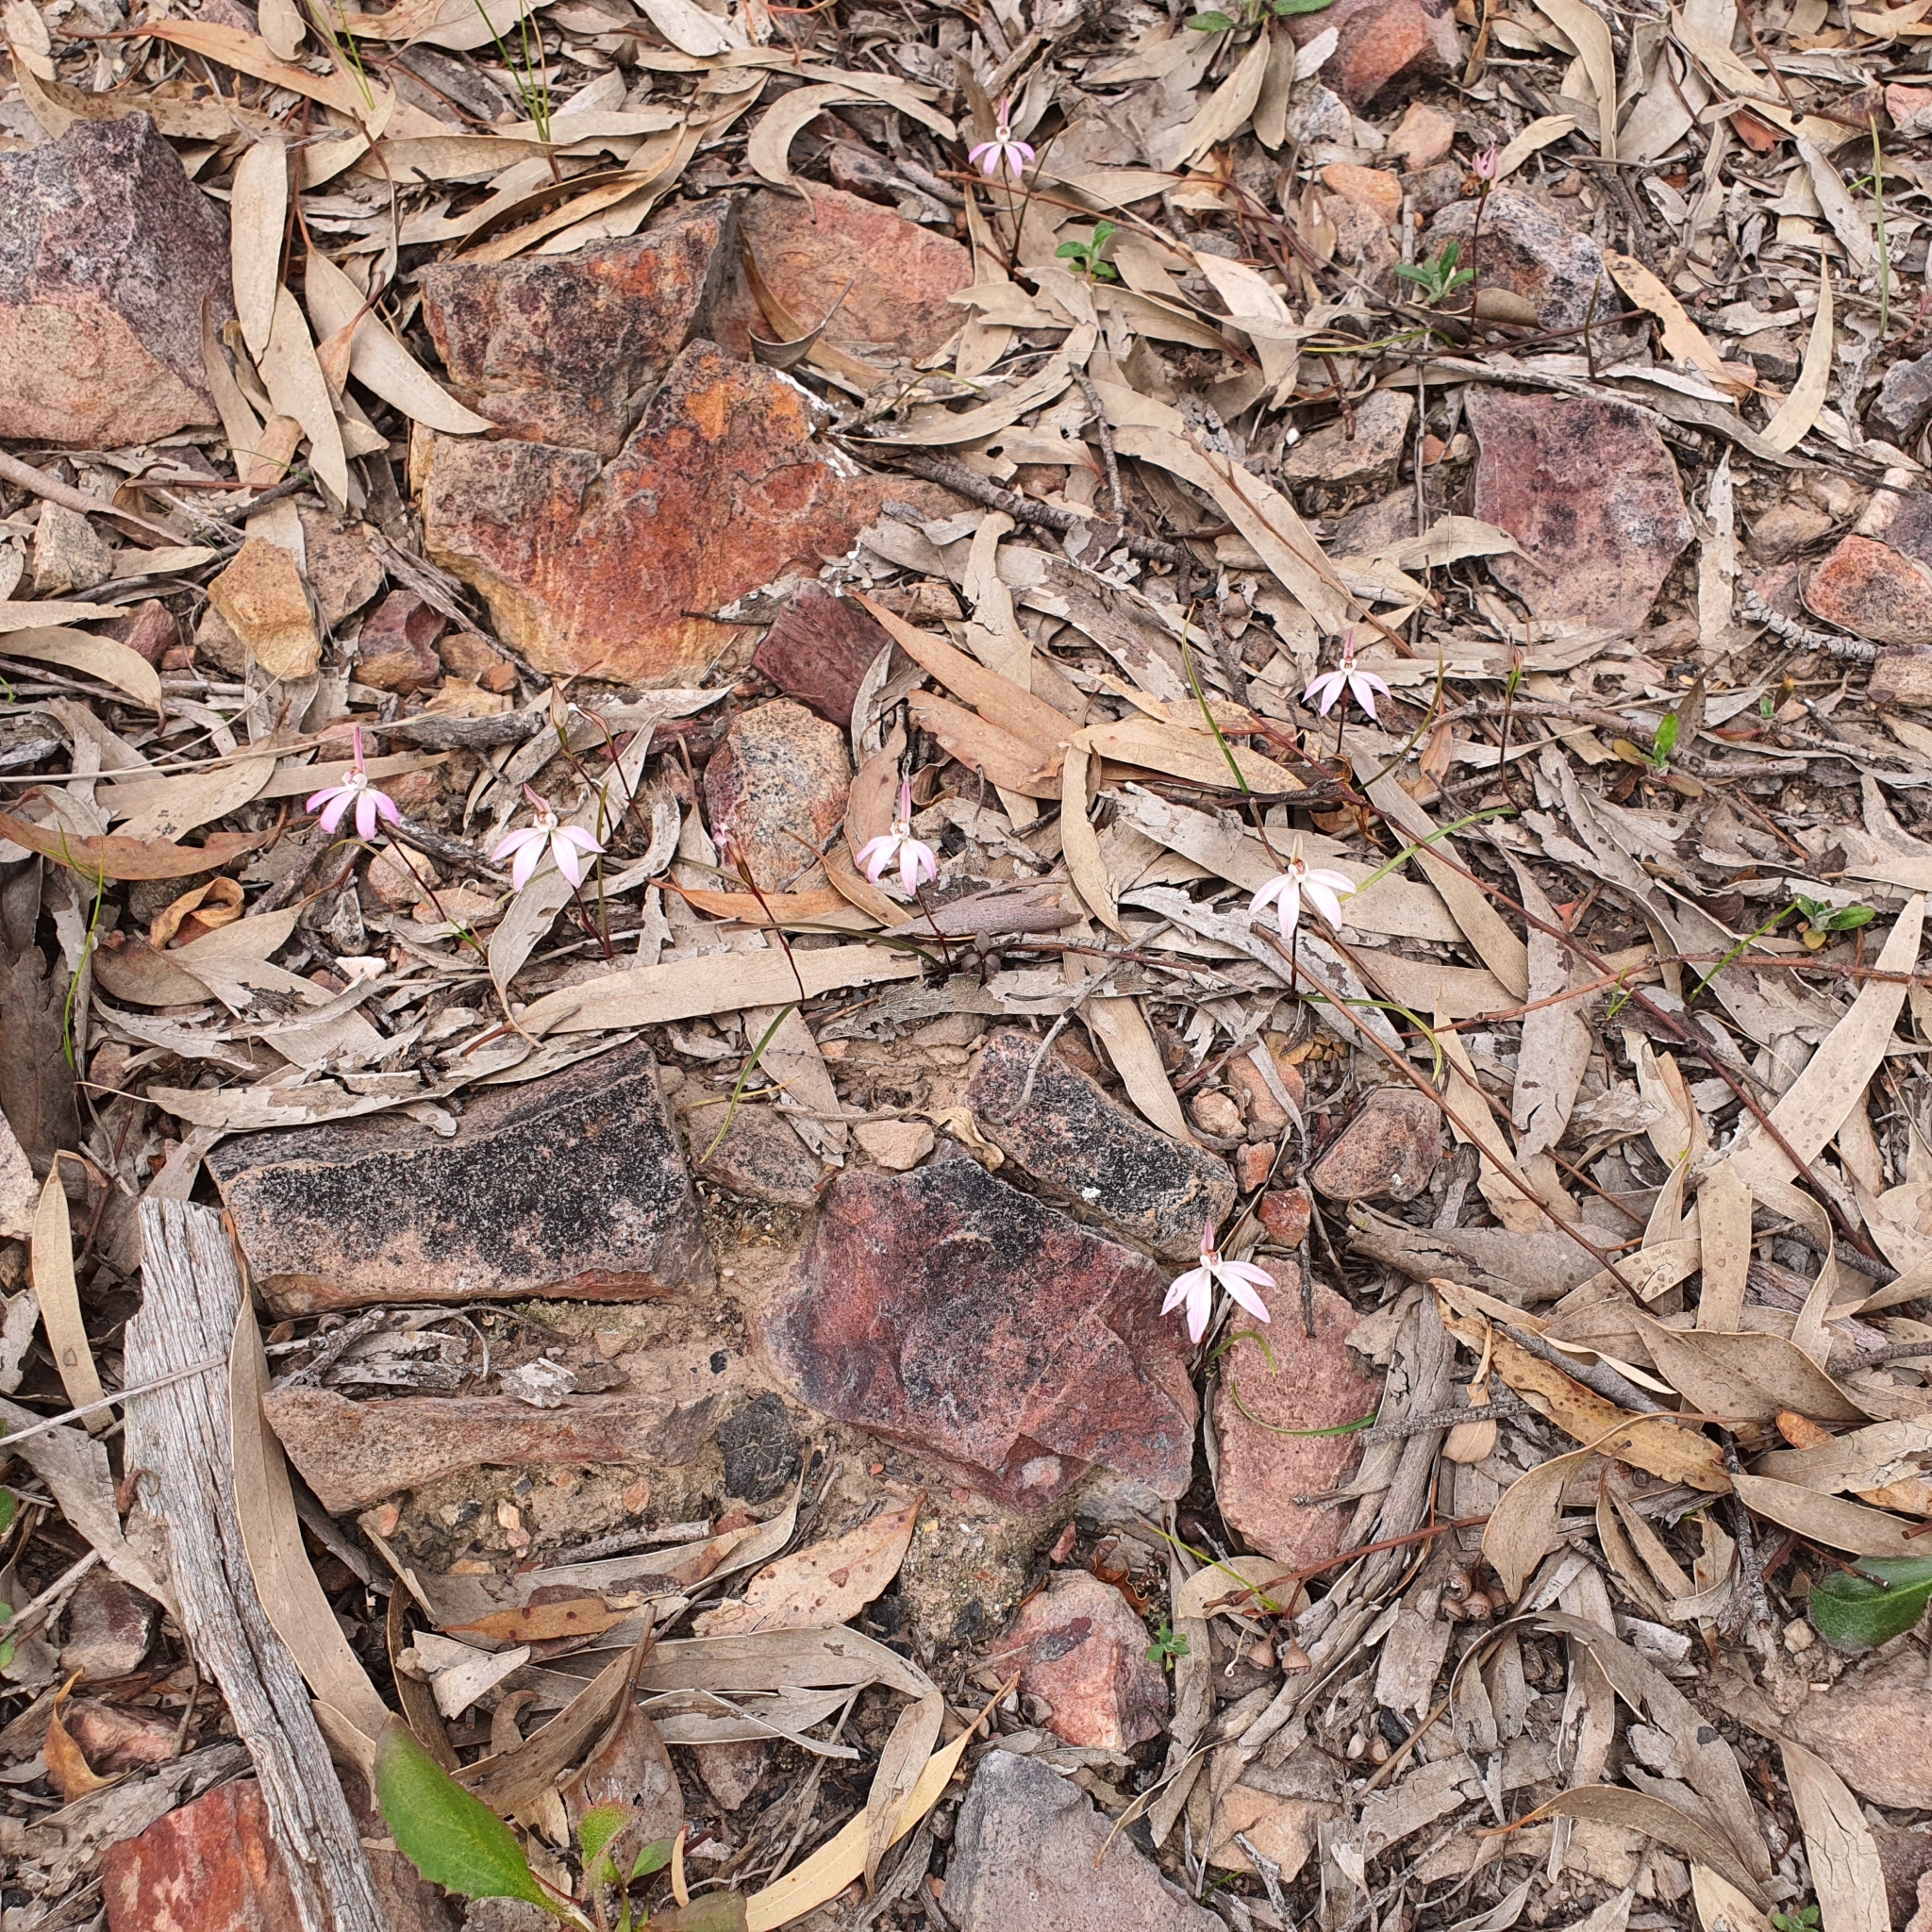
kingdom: Plantae
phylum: Tracheophyta
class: Liliopsida
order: Asparagales
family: Orchidaceae
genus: Caladenia
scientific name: Caladenia fuscata
